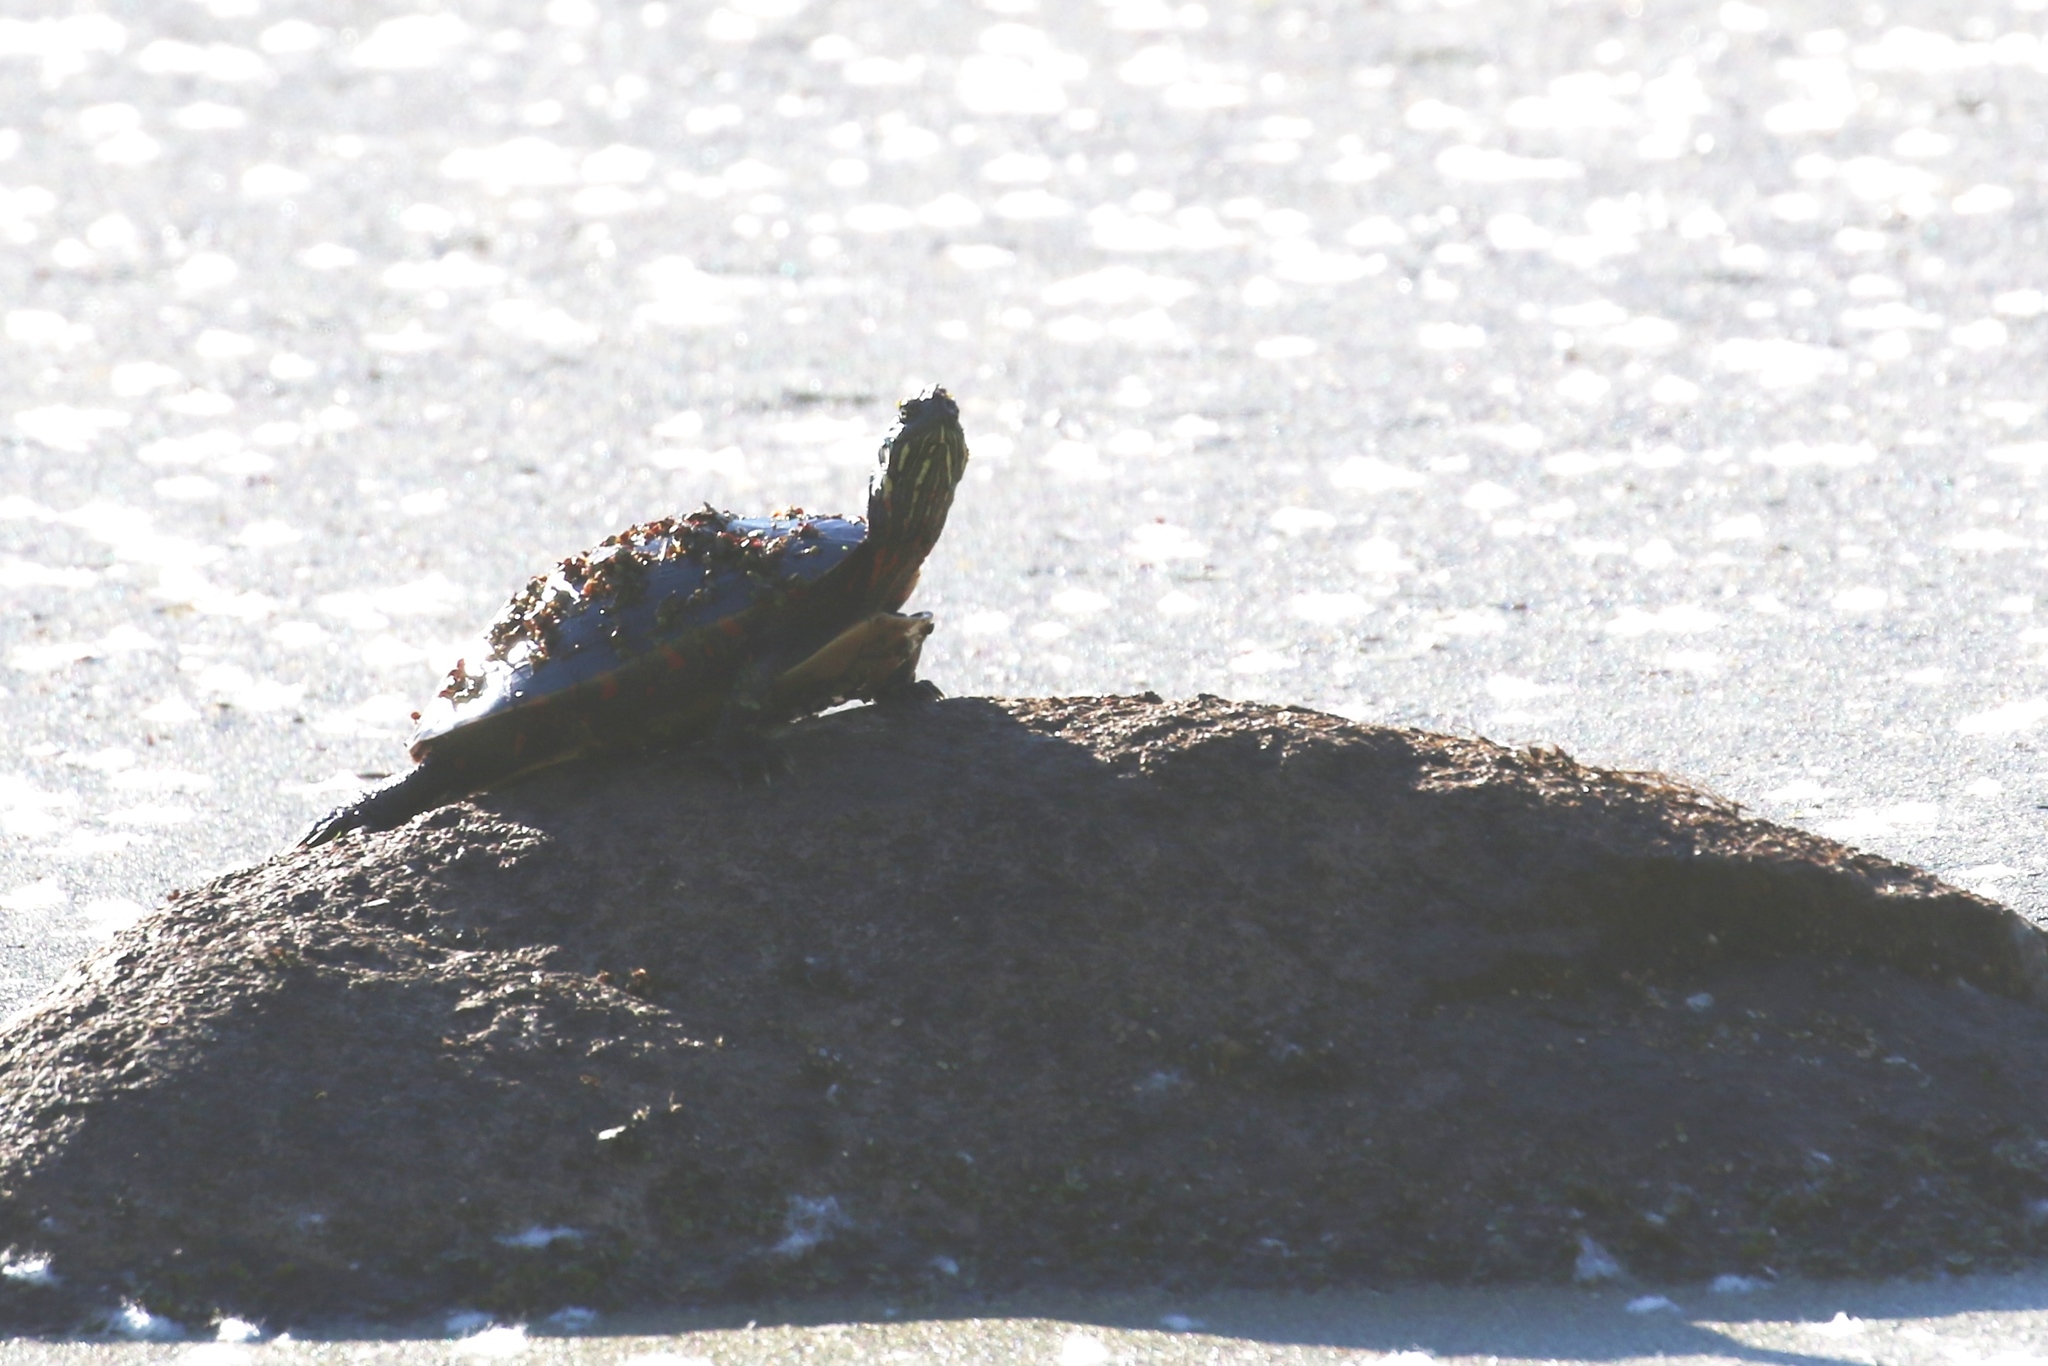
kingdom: Animalia
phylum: Chordata
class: Testudines
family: Emydidae
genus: Chrysemys
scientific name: Chrysemys picta
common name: Painted turtle
